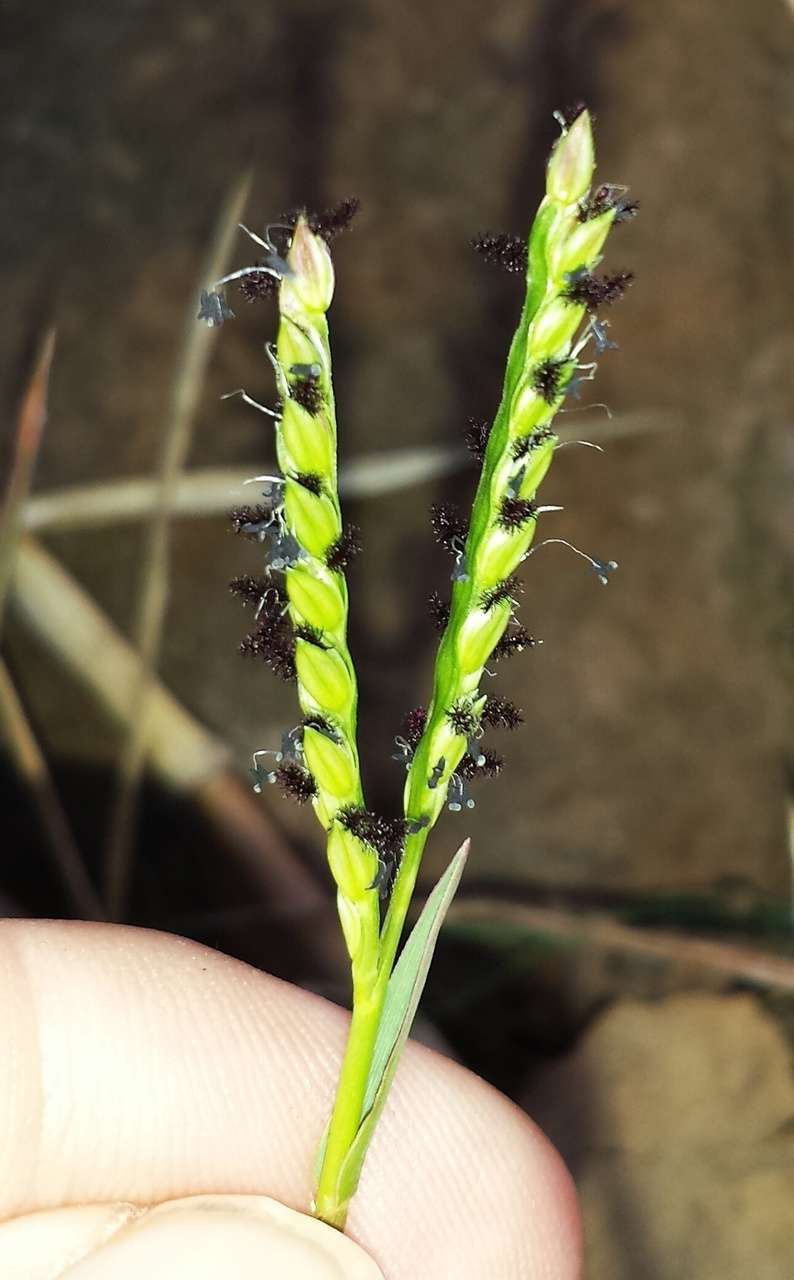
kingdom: Plantae
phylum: Tracheophyta
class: Liliopsida
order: Poales
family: Poaceae
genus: Paspalum
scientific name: Paspalum distichum
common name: Knotgrass
